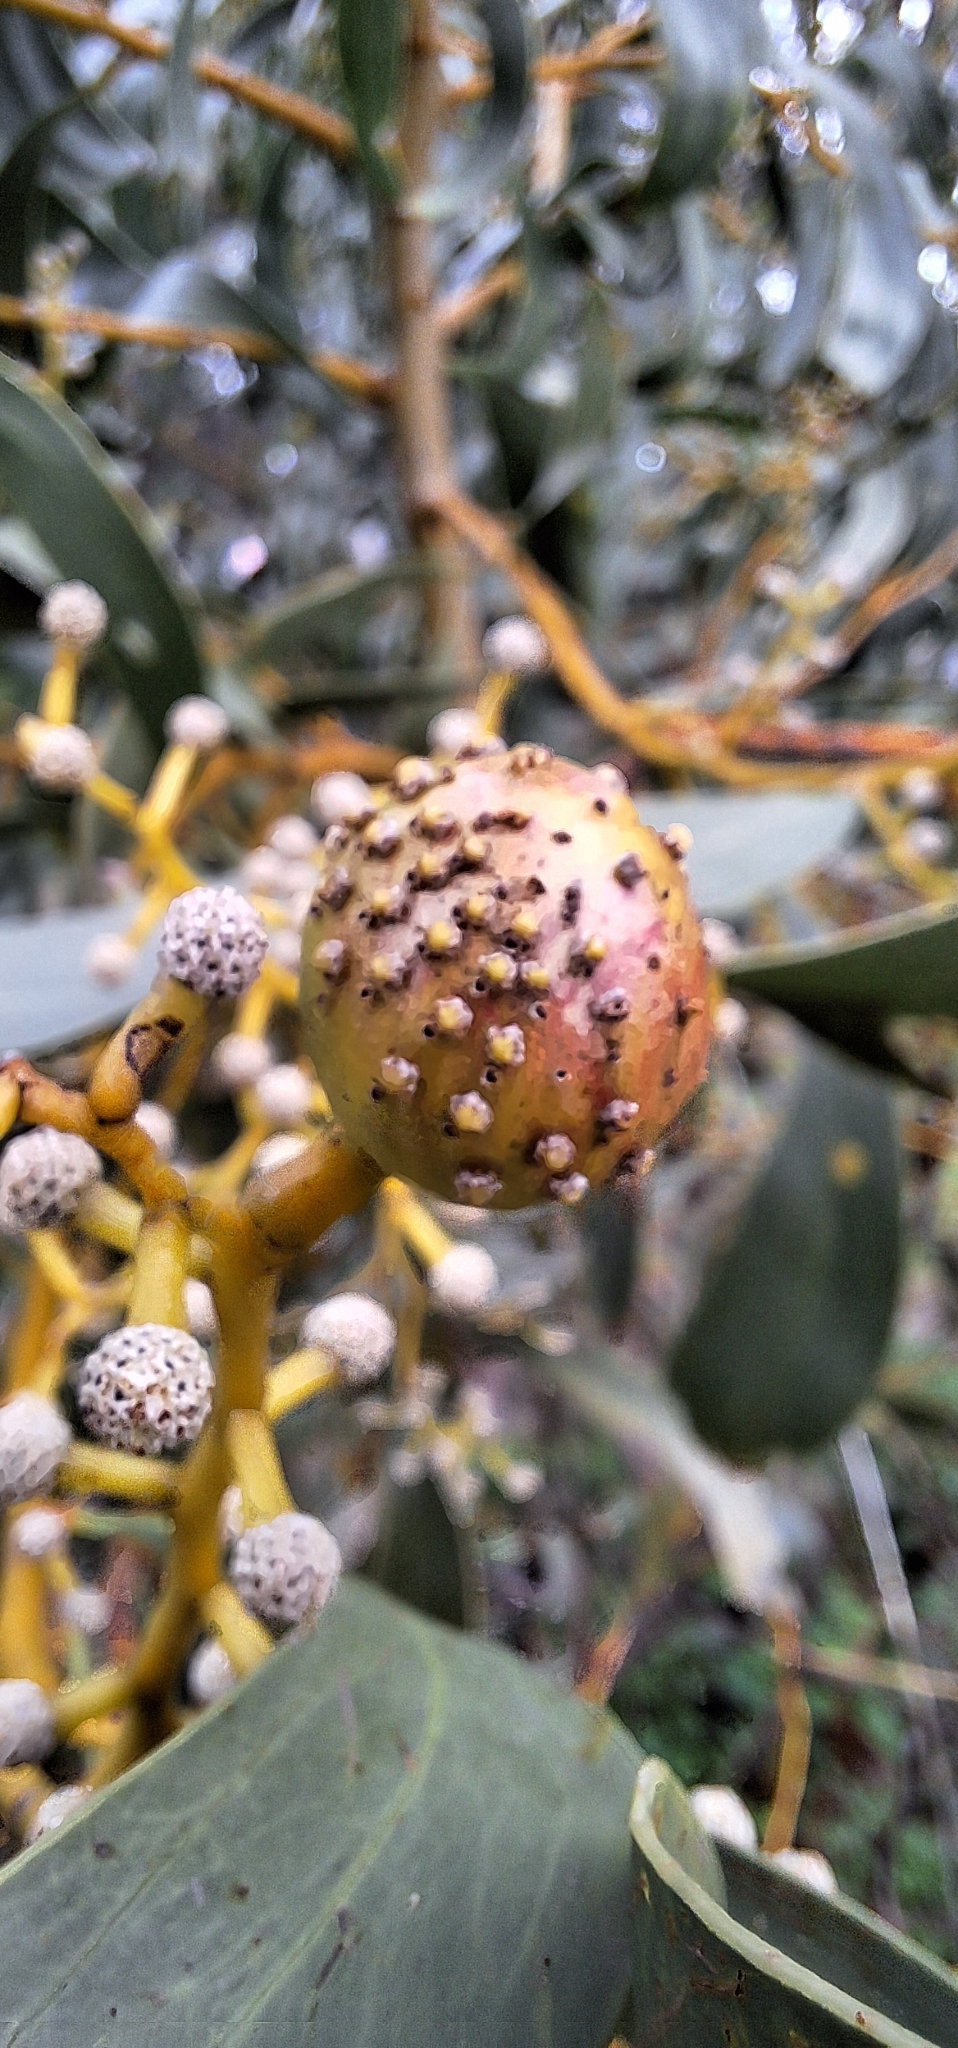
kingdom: Animalia
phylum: Arthropoda
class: Insecta
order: Hymenoptera
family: Pteromalidae
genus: Trichilogaster
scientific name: Trichilogaster signiventris
